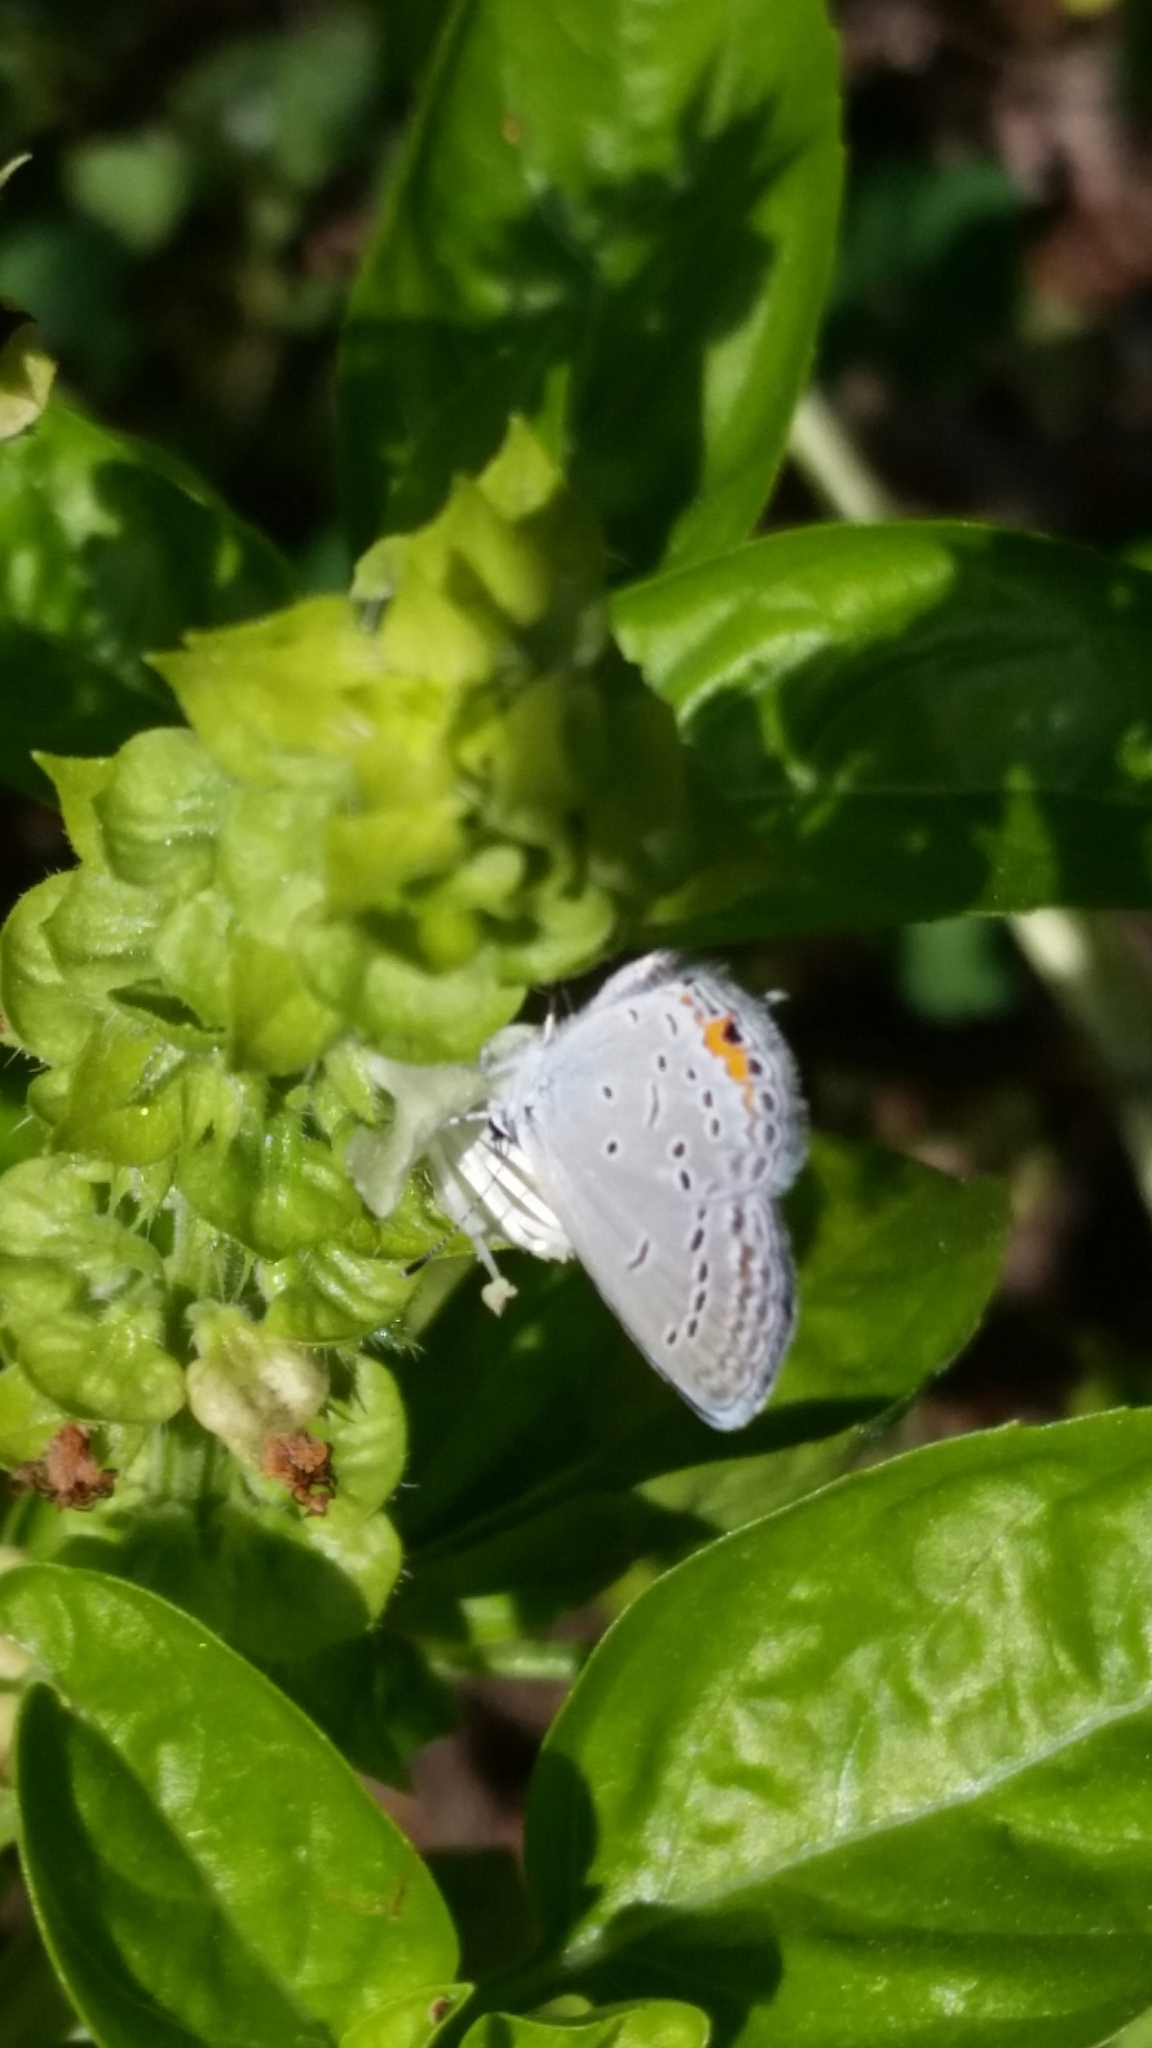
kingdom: Animalia
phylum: Arthropoda
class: Insecta
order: Lepidoptera
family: Lycaenidae
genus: Elkalyce
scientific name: Elkalyce comyntas
